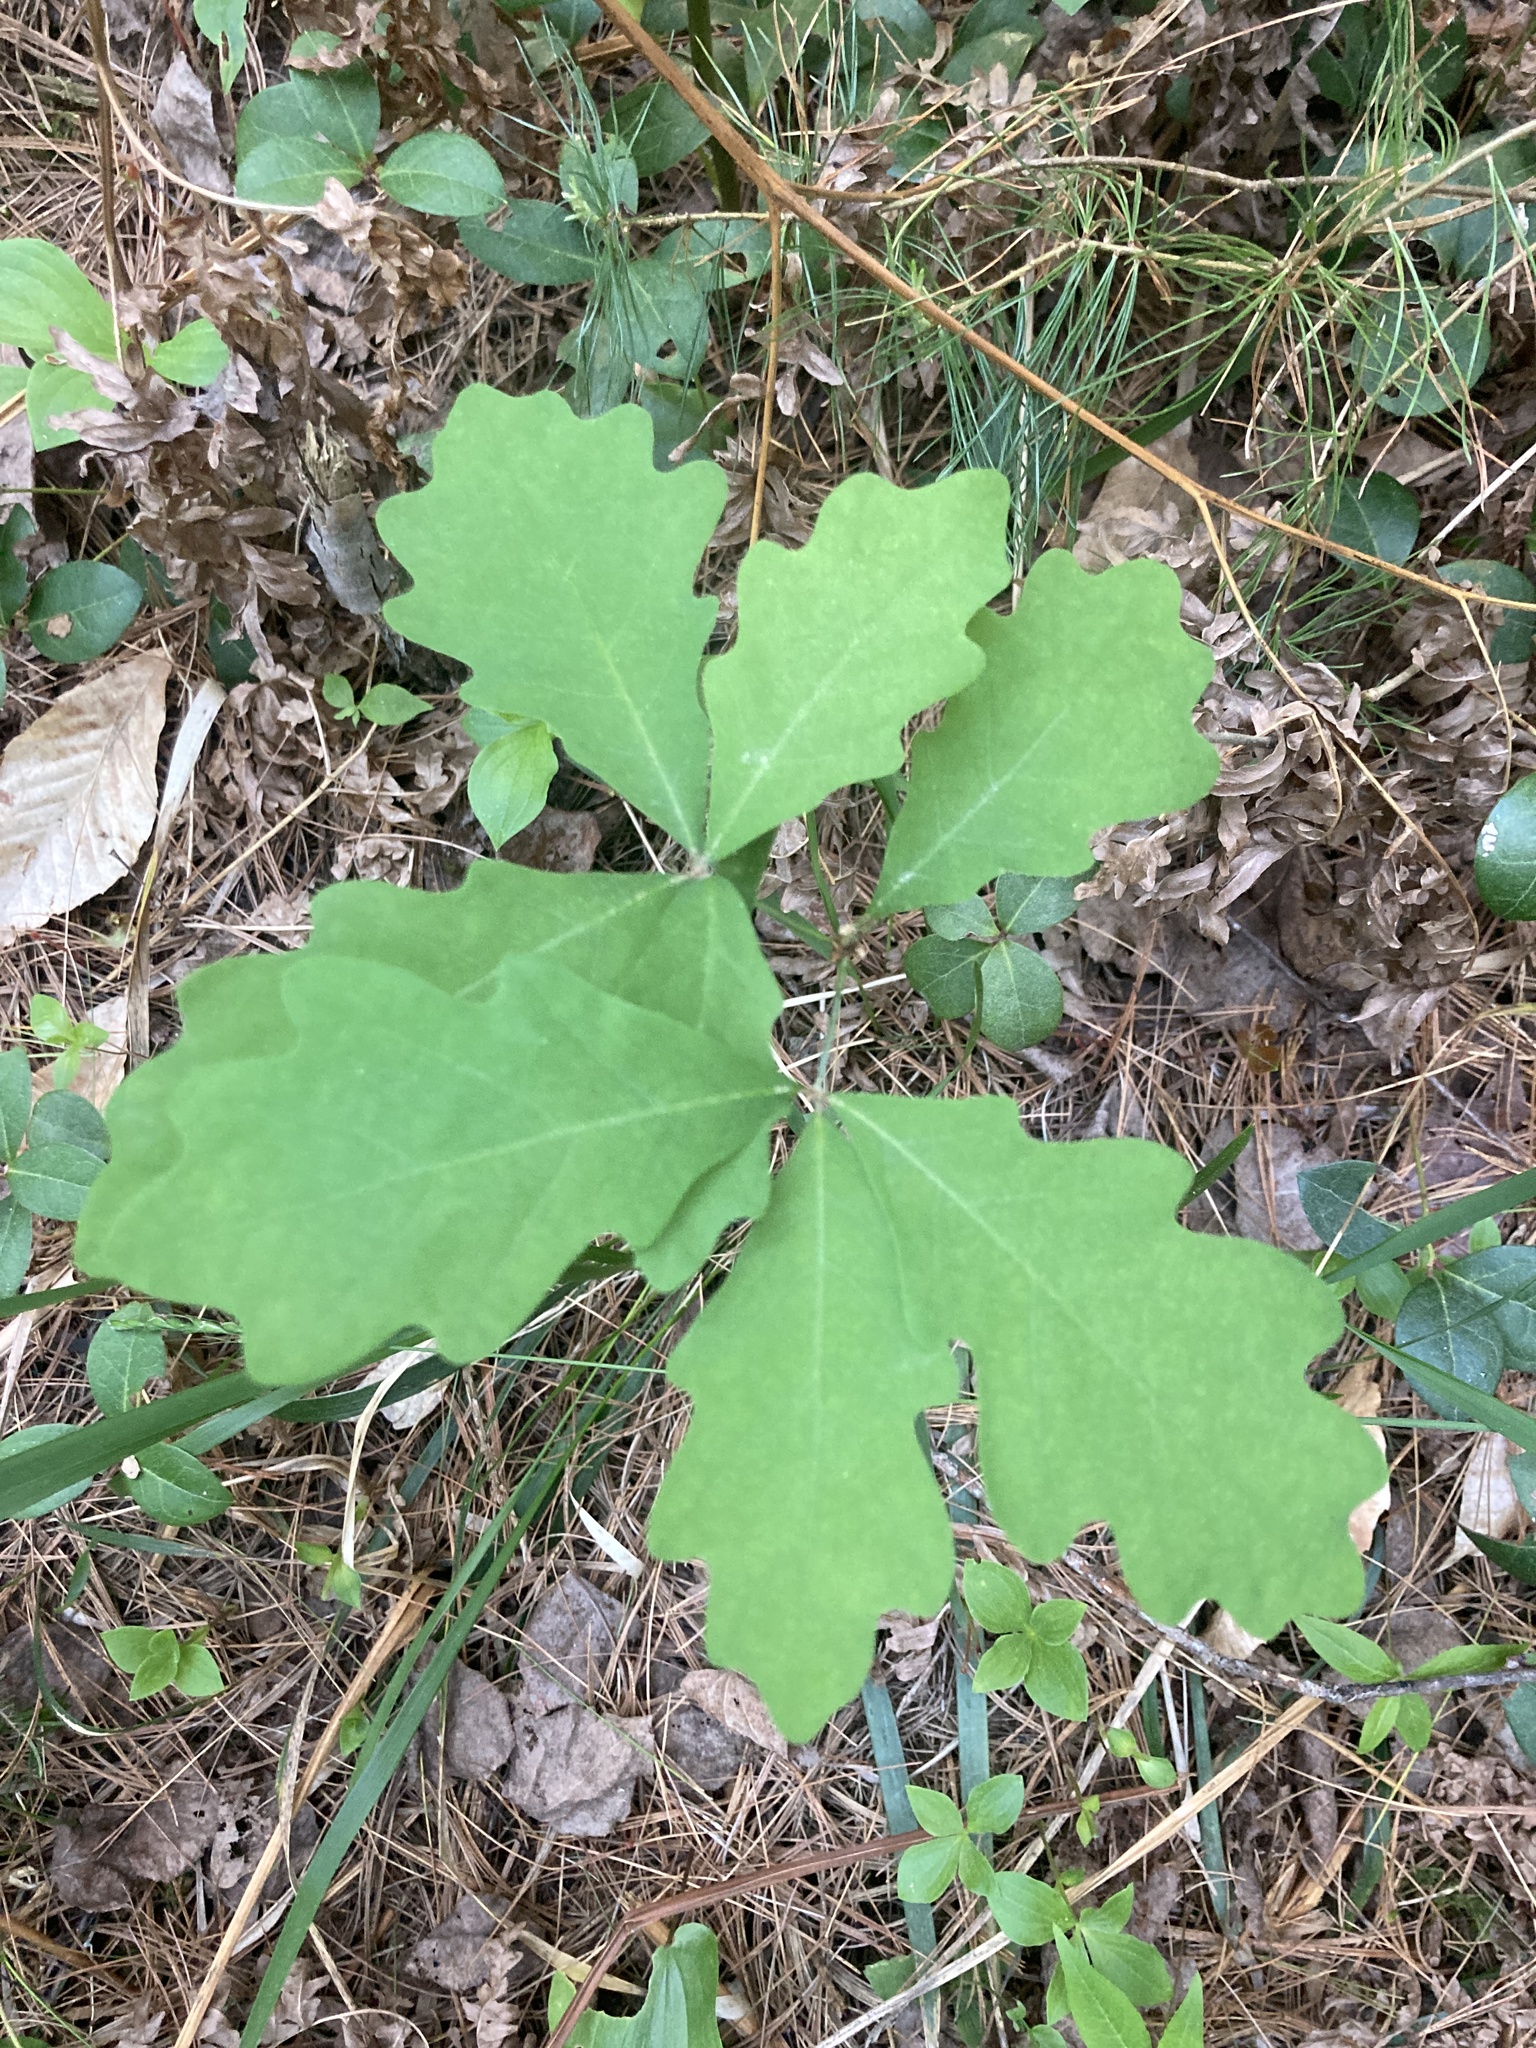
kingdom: Plantae
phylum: Tracheophyta
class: Magnoliopsida
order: Fagales
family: Fagaceae
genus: Quercus
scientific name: Quercus alba
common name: White oak
